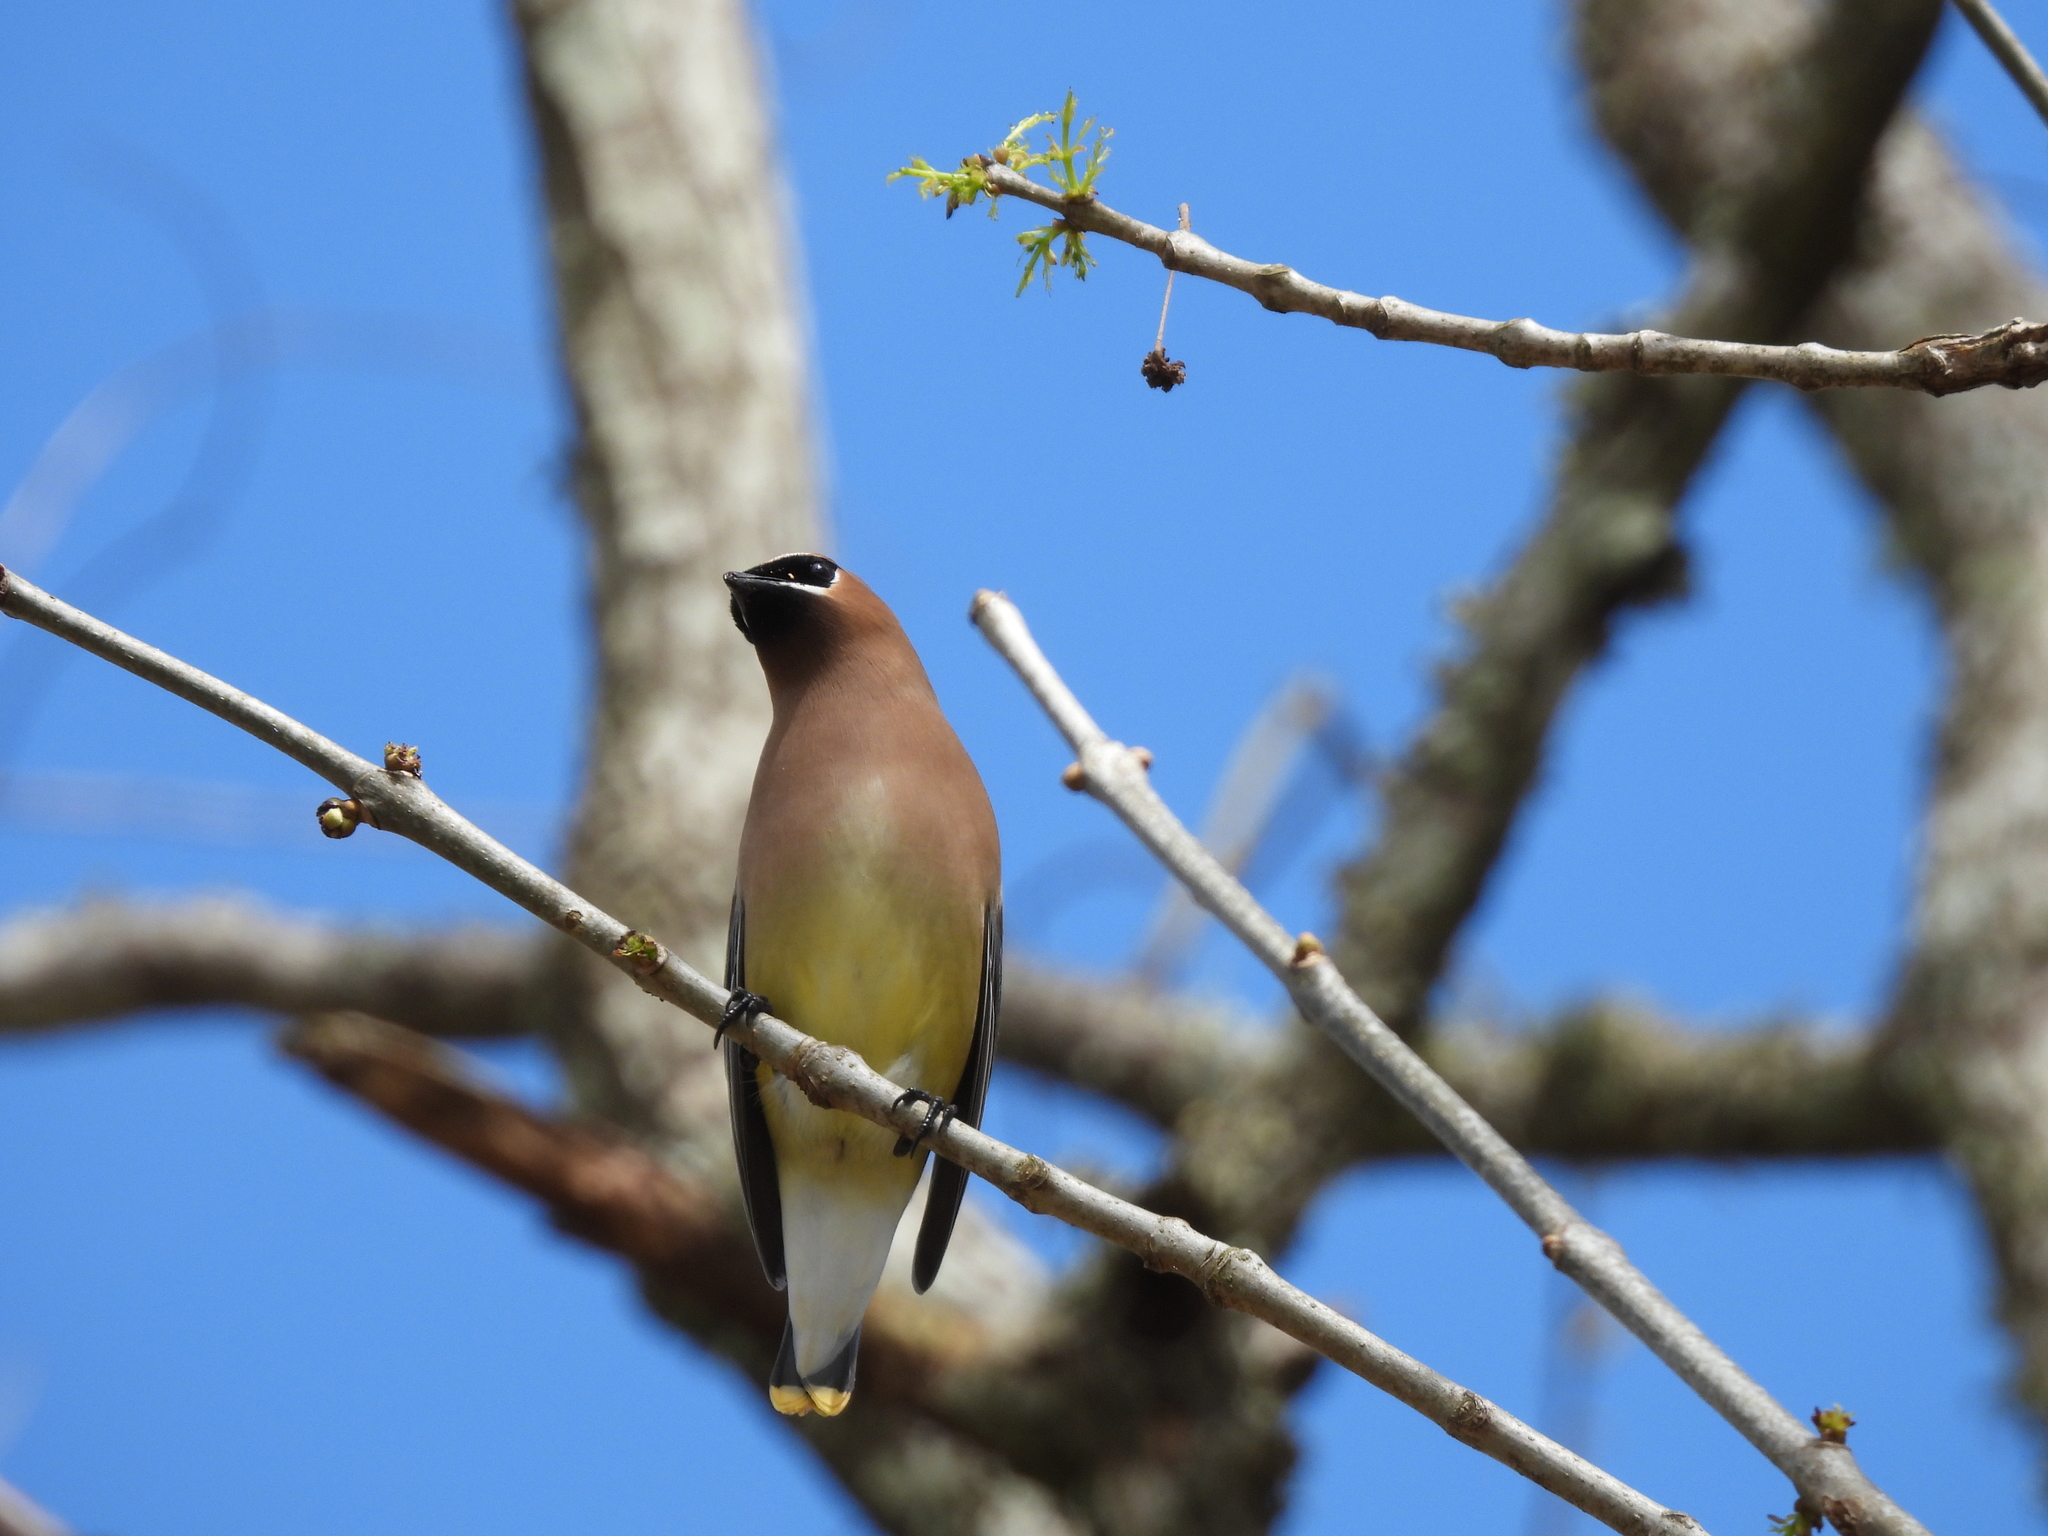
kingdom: Animalia
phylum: Chordata
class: Aves
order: Passeriformes
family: Bombycillidae
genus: Bombycilla
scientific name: Bombycilla cedrorum
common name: Cedar waxwing
